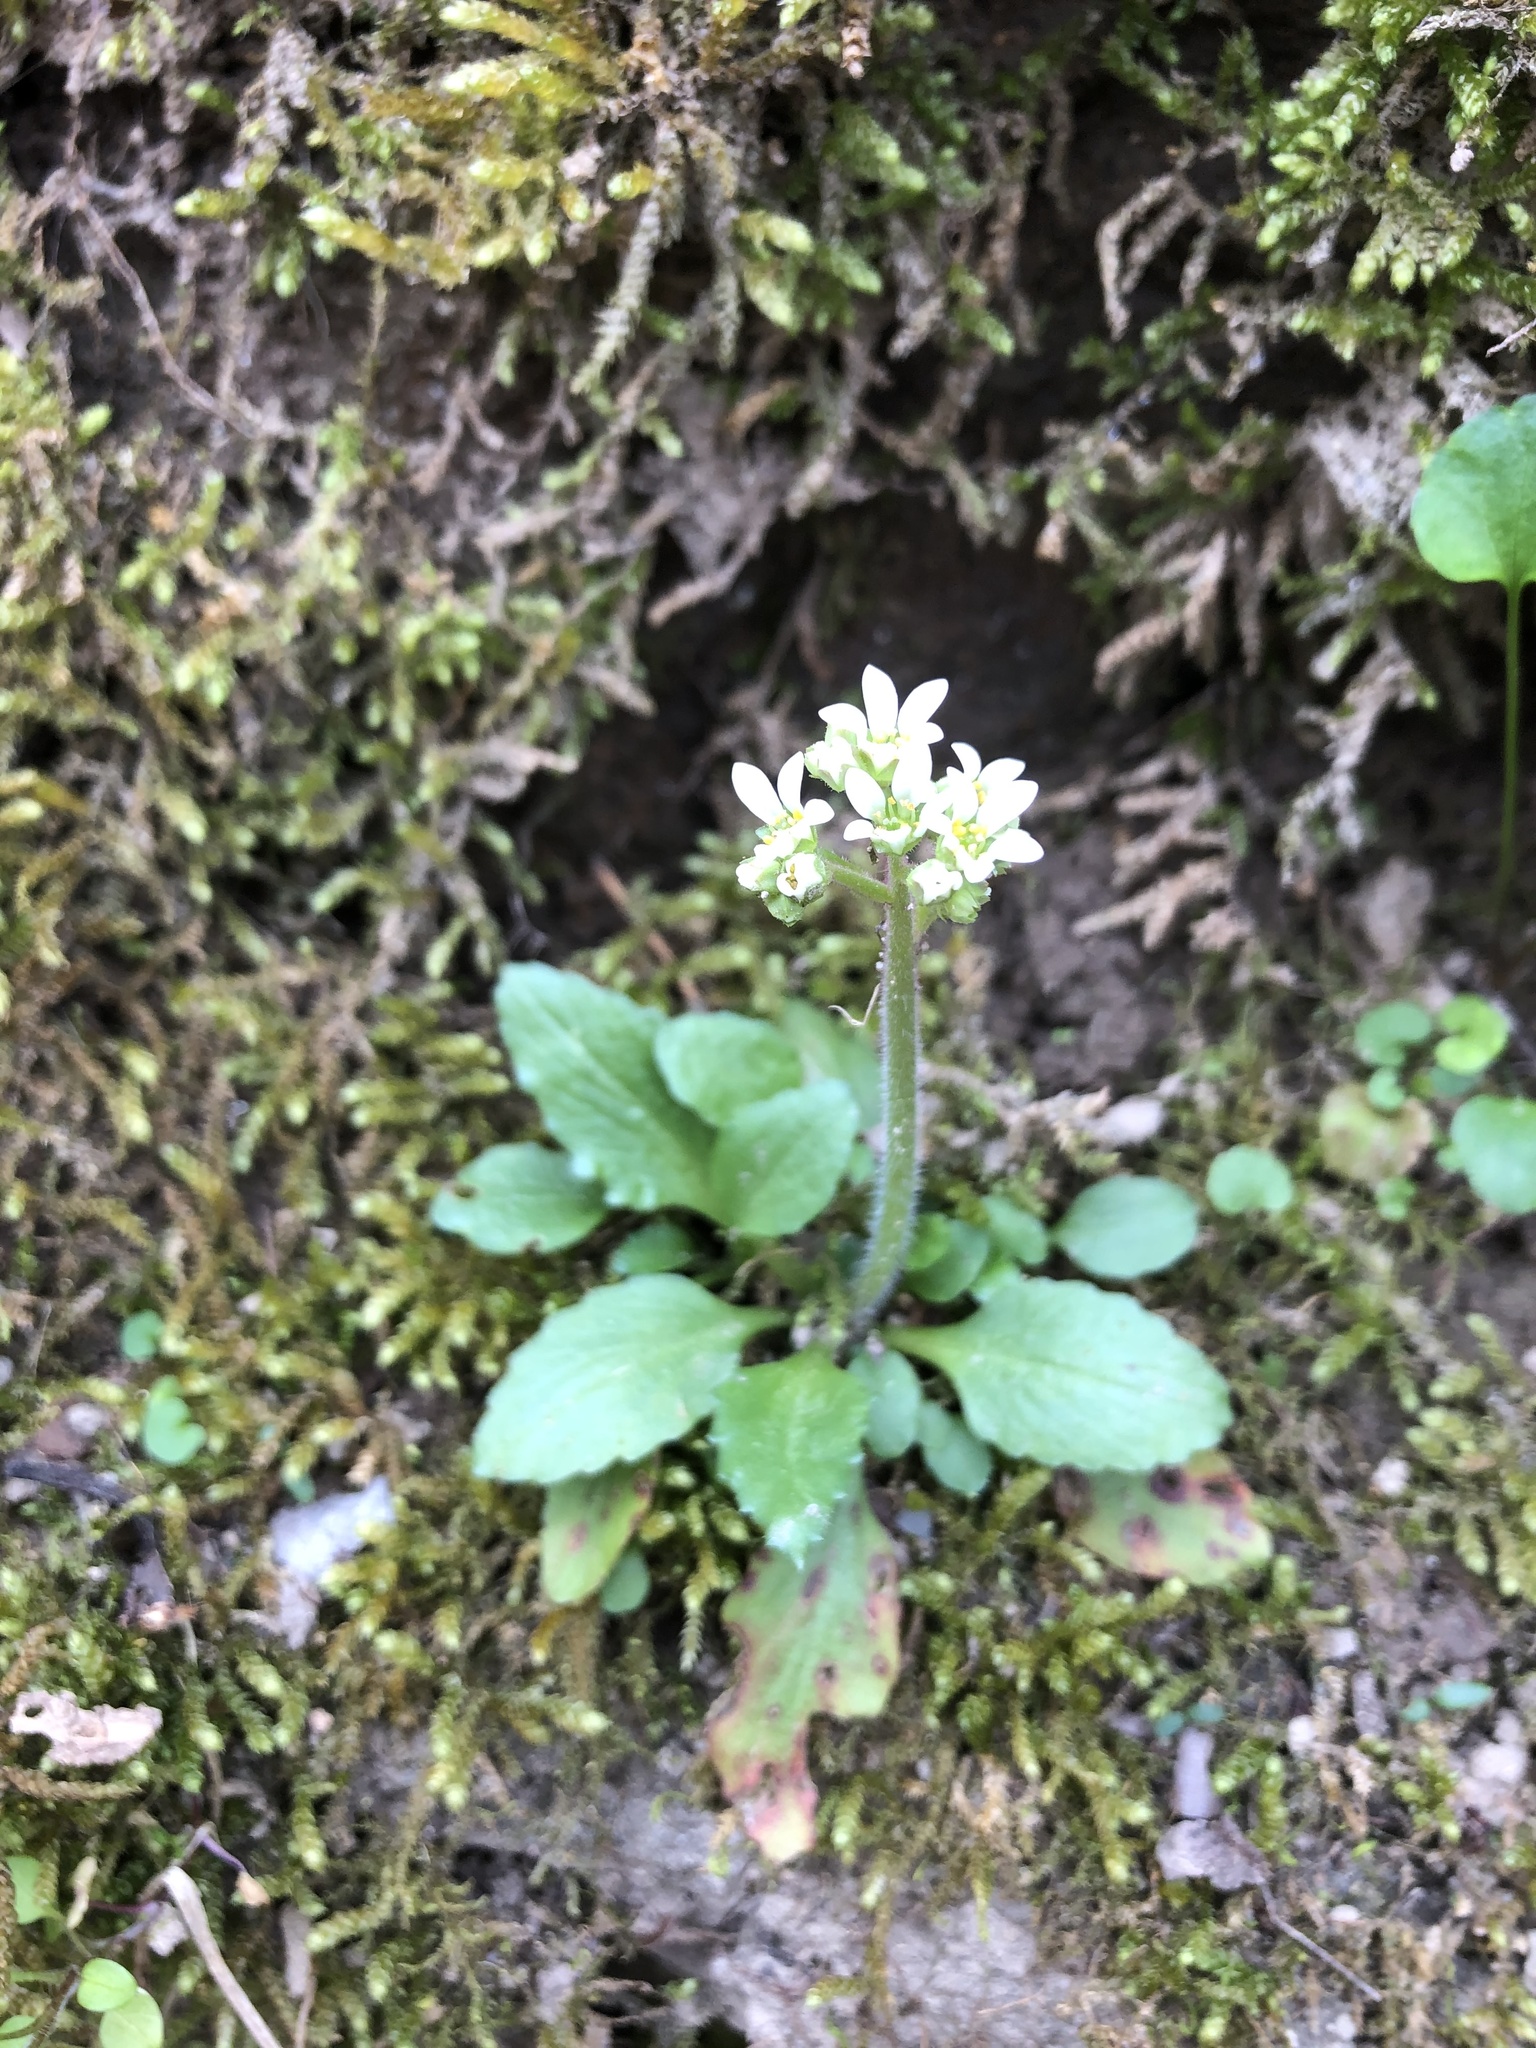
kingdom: Plantae
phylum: Tracheophyta
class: Magnoliopsida
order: Saxifragales
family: Saxifragaceae
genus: Micranthes
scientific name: Micranthes virginiensis
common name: Early saxifrage
